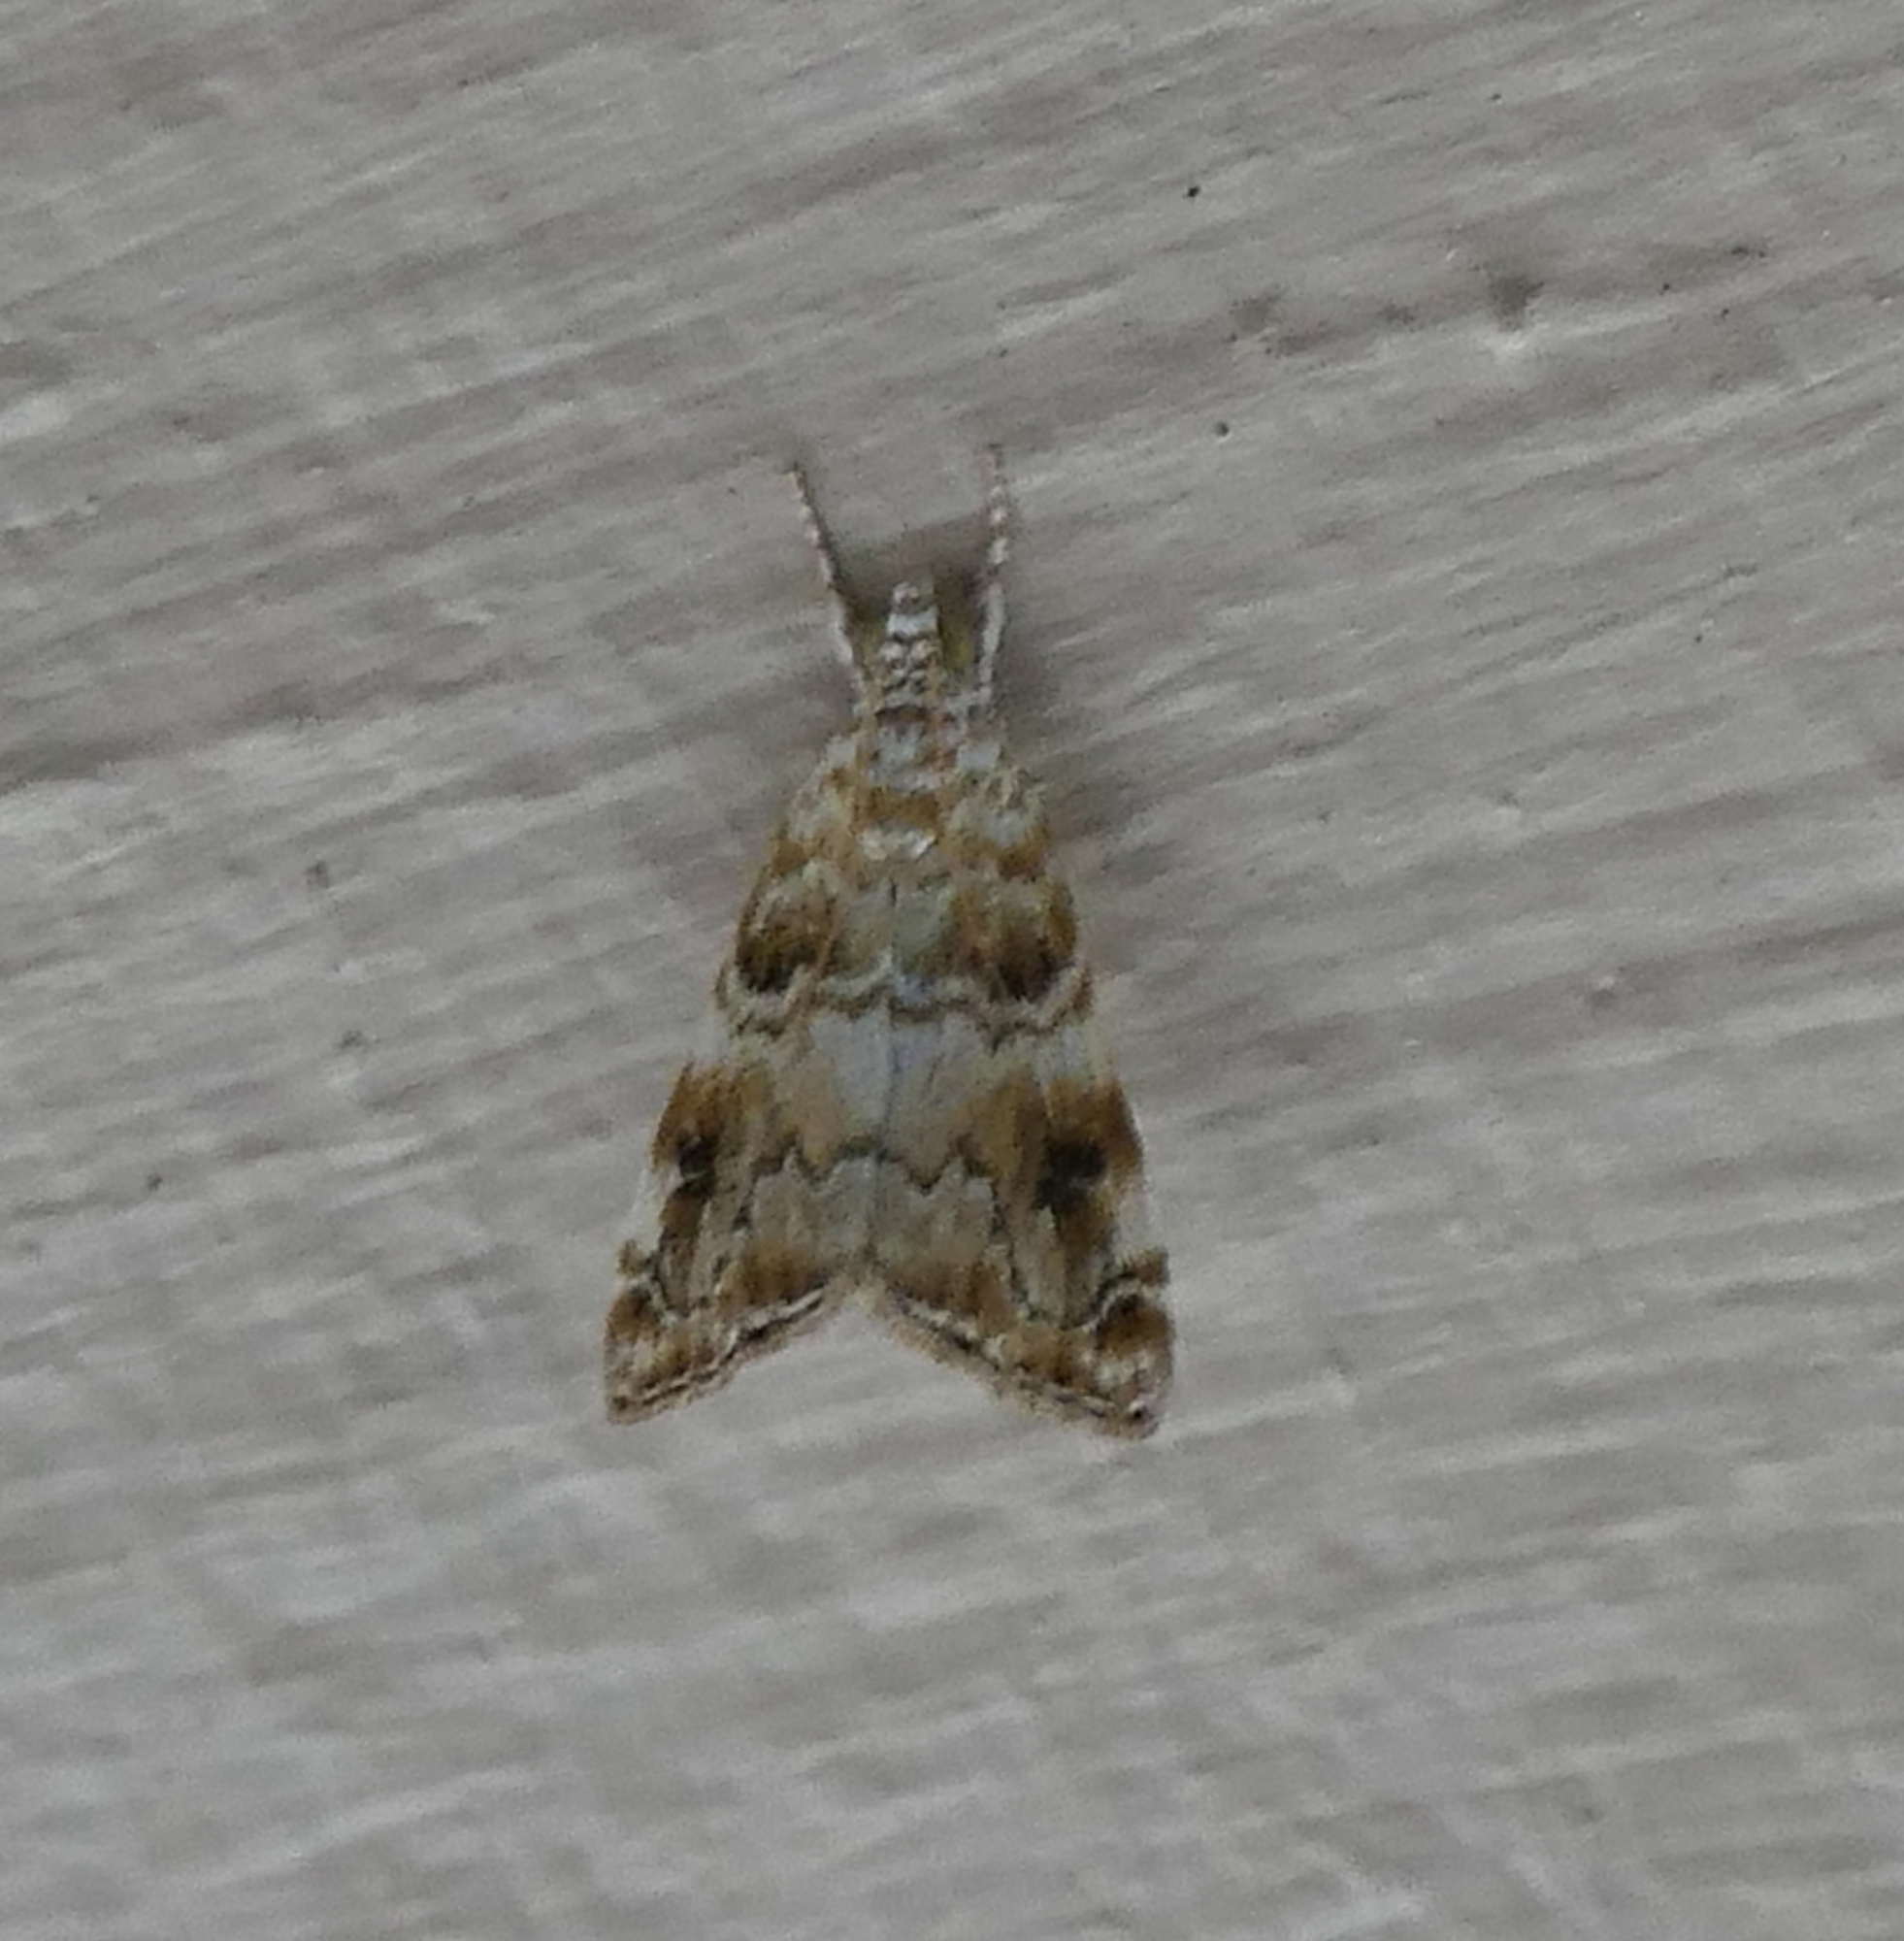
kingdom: Animalia
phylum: Arthropoda
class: Insecta
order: Lepidoptera
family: Crambidae
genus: Hellula
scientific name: Hellula kempae
